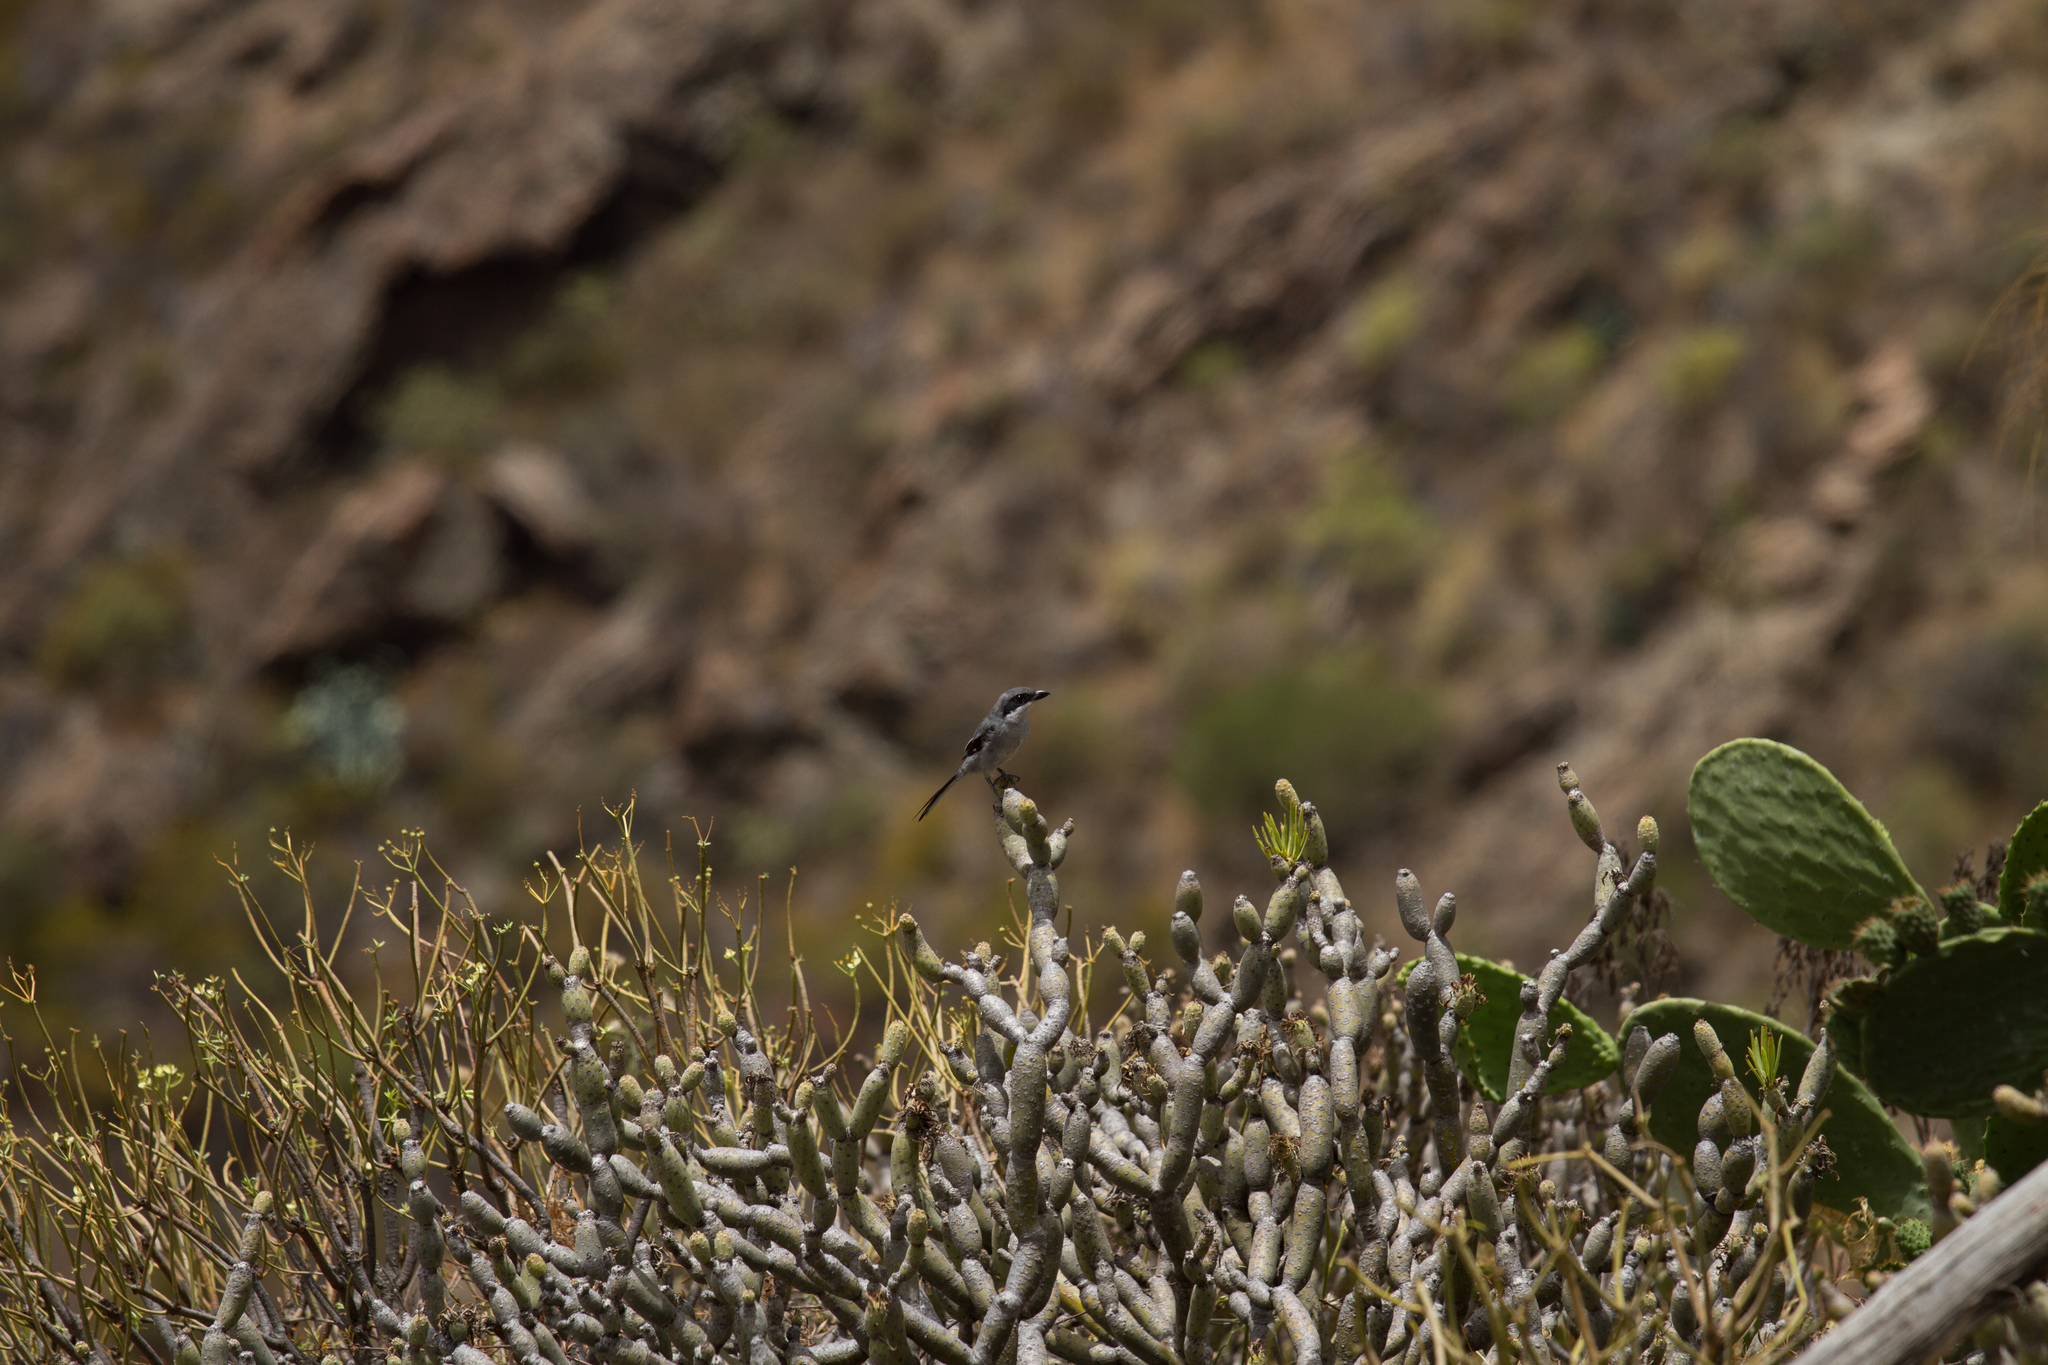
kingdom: Animalia
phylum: Chordata
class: Aves
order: Passeriformes
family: Laniidae
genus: Lanius
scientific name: Lanius excubitor
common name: Great grey shrike
